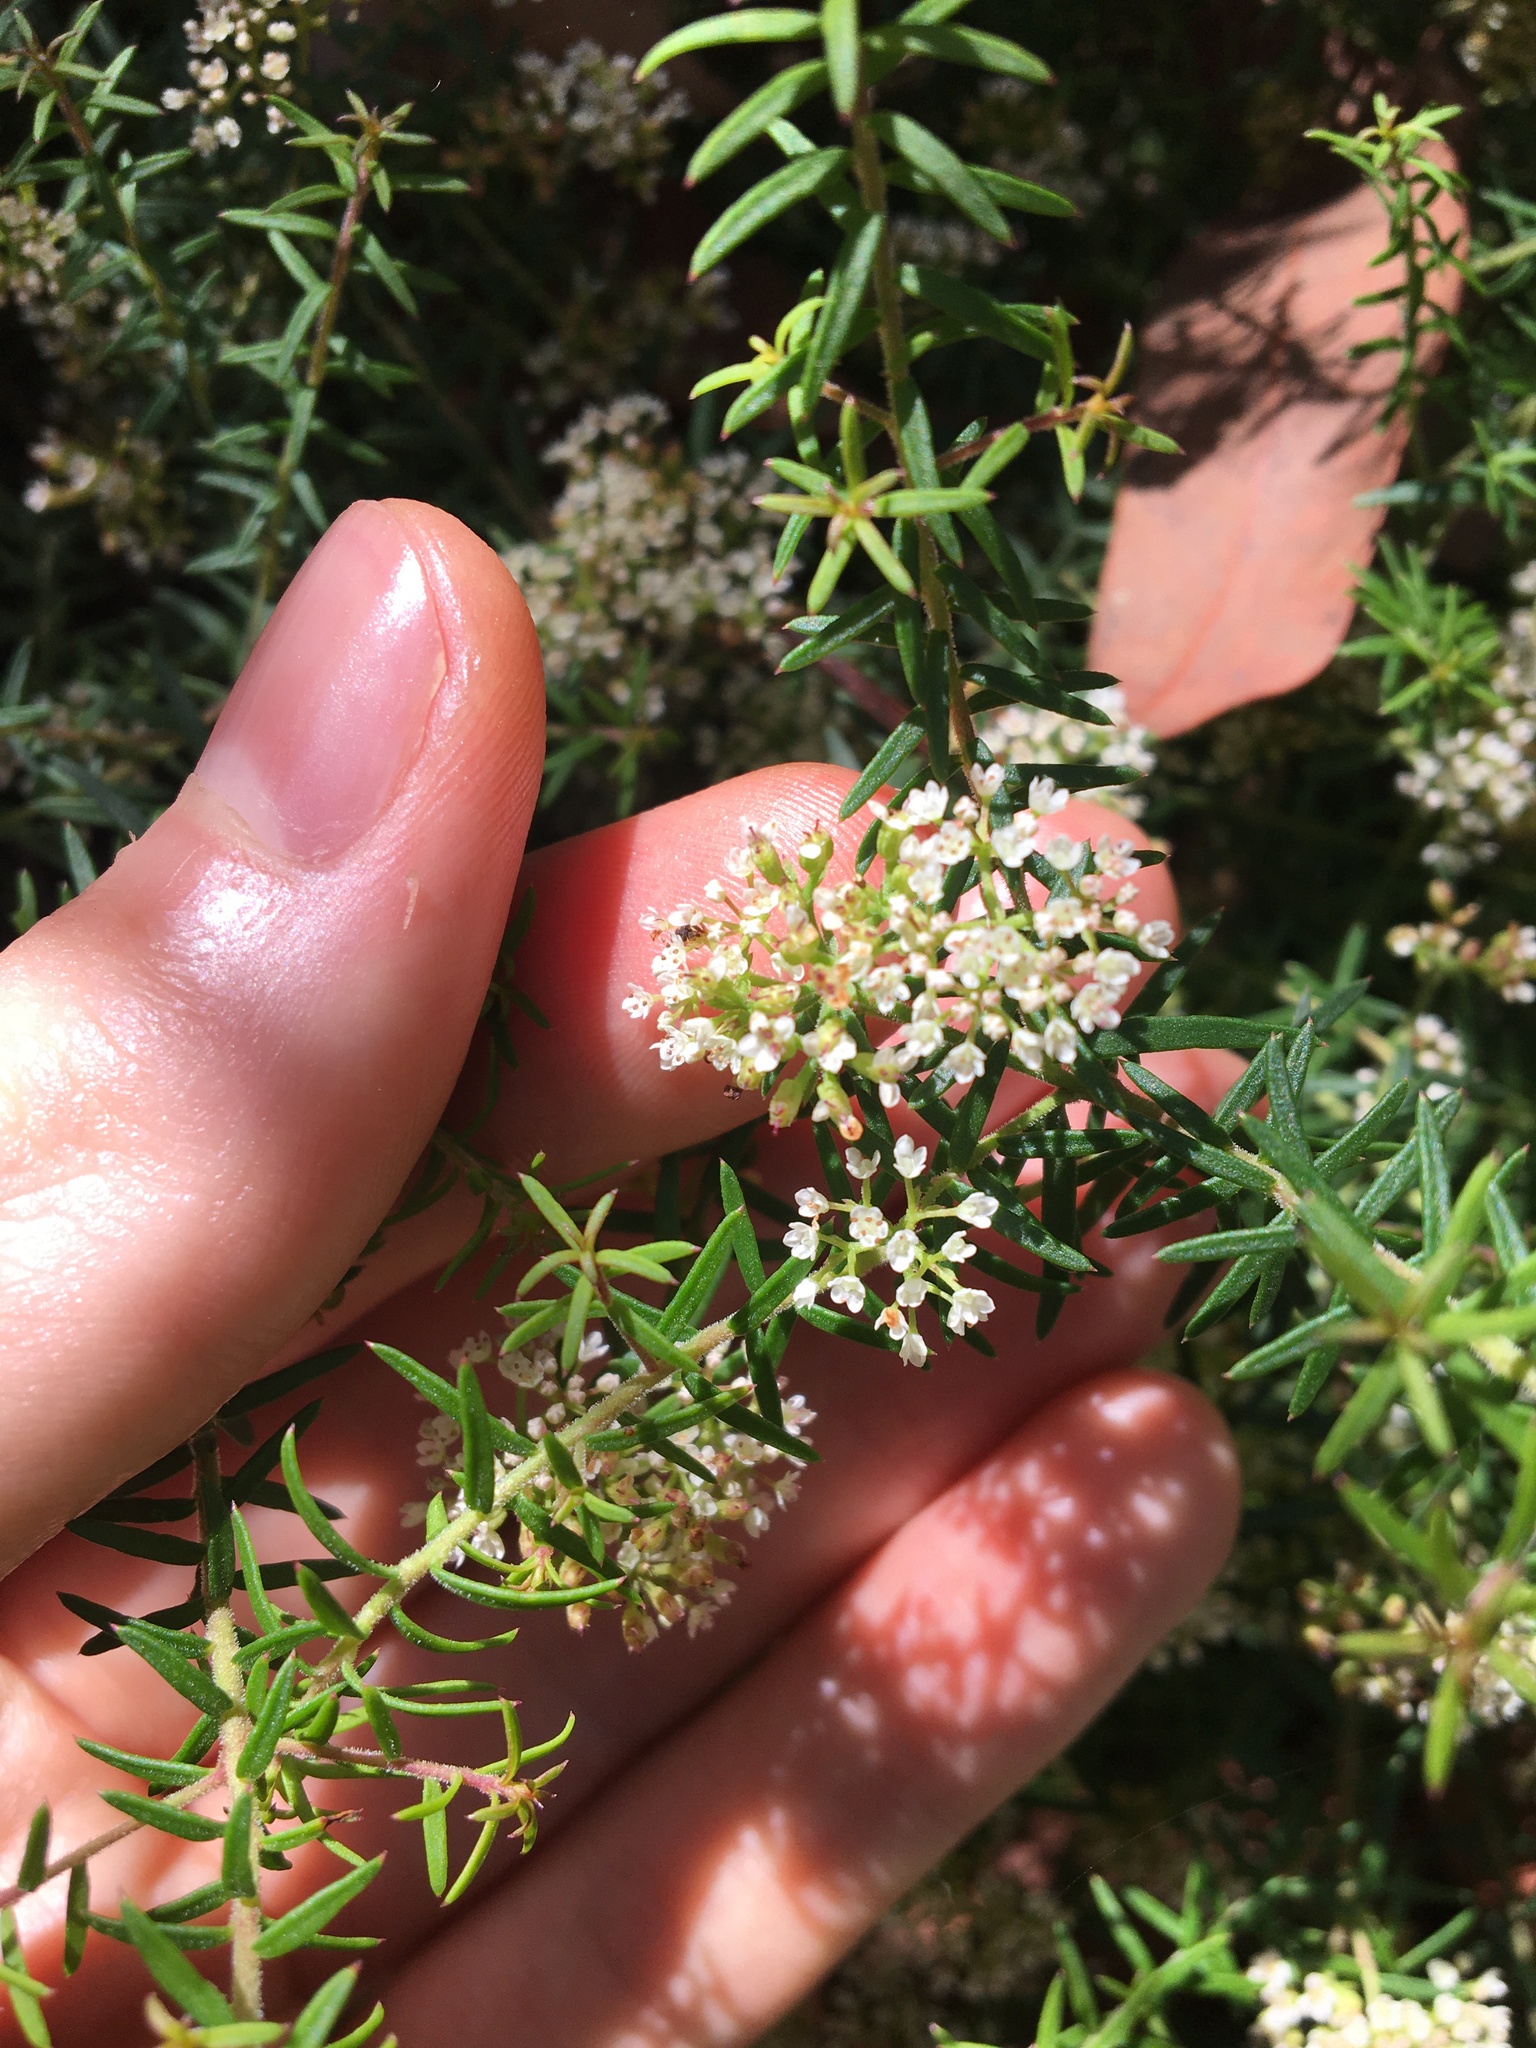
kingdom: Plantae
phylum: Tracheophyta
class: Magnoliopsida
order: Apiales
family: Apiaceae
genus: Platysace
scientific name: Platysace ericoides
